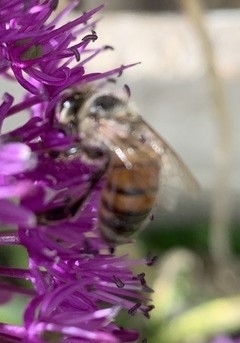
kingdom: Animalia
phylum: Arthropoda
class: Insecta
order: Hymenoptera
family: Apidae
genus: Apis
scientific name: Apis mellifera
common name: Honey bee
